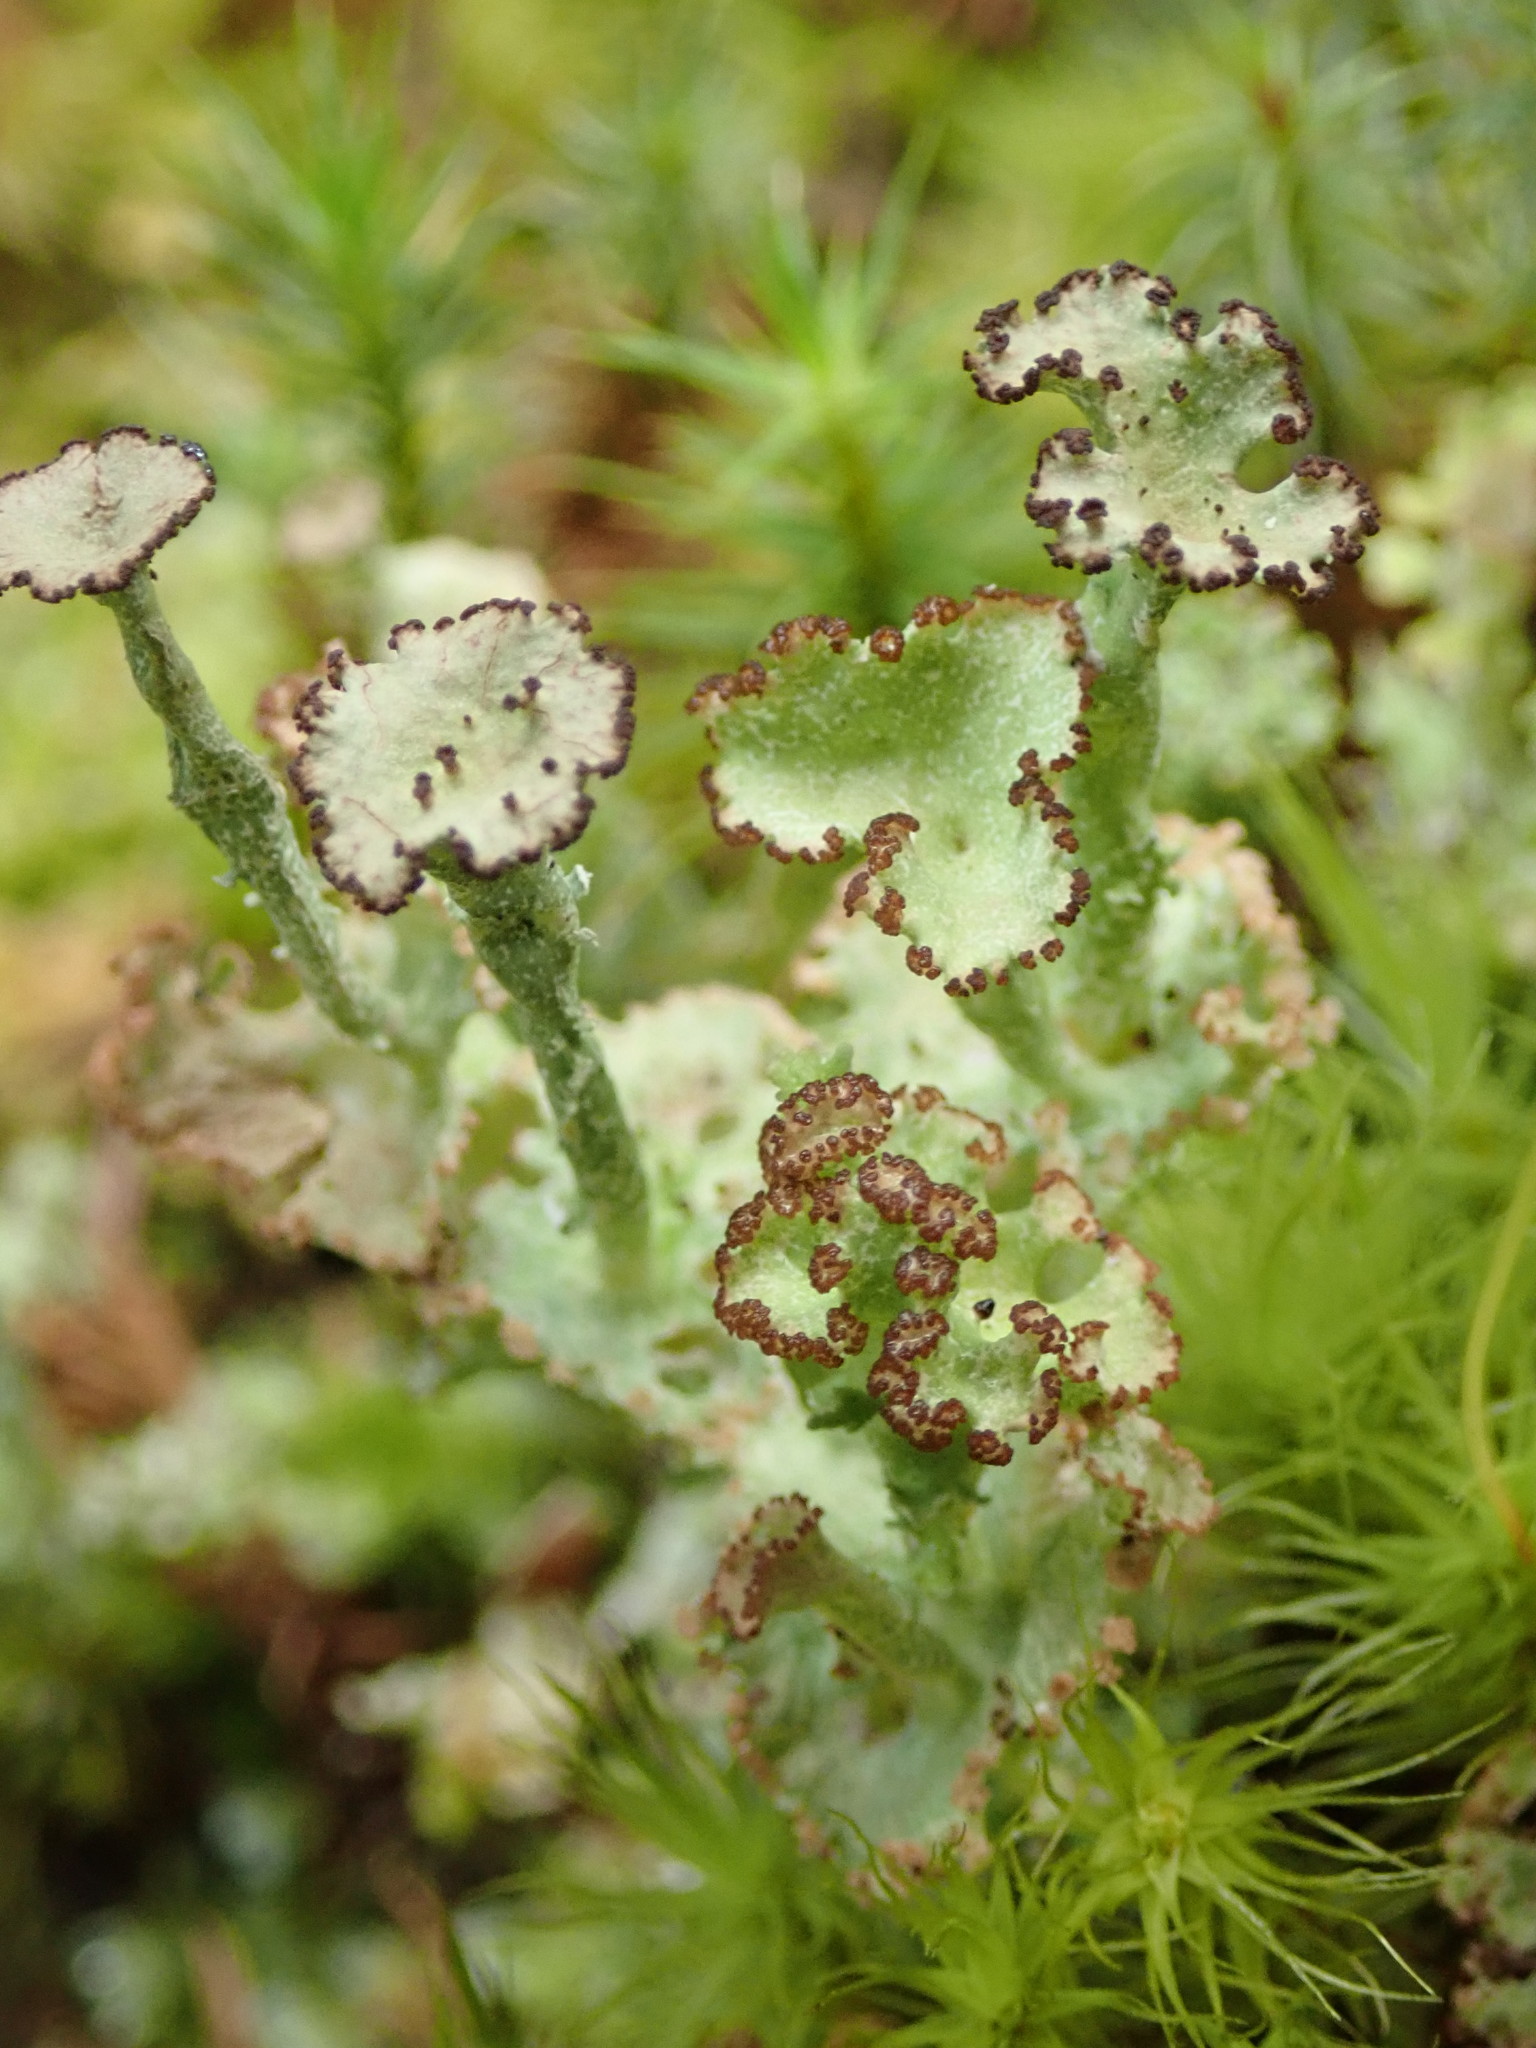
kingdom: Fungi
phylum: Ascomycota
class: Lecanoromycetes
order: Lecanorales
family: Cladoniaceae
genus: Cladonia
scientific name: Cladonia cervicornis
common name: Browned pixie-cup lichen
